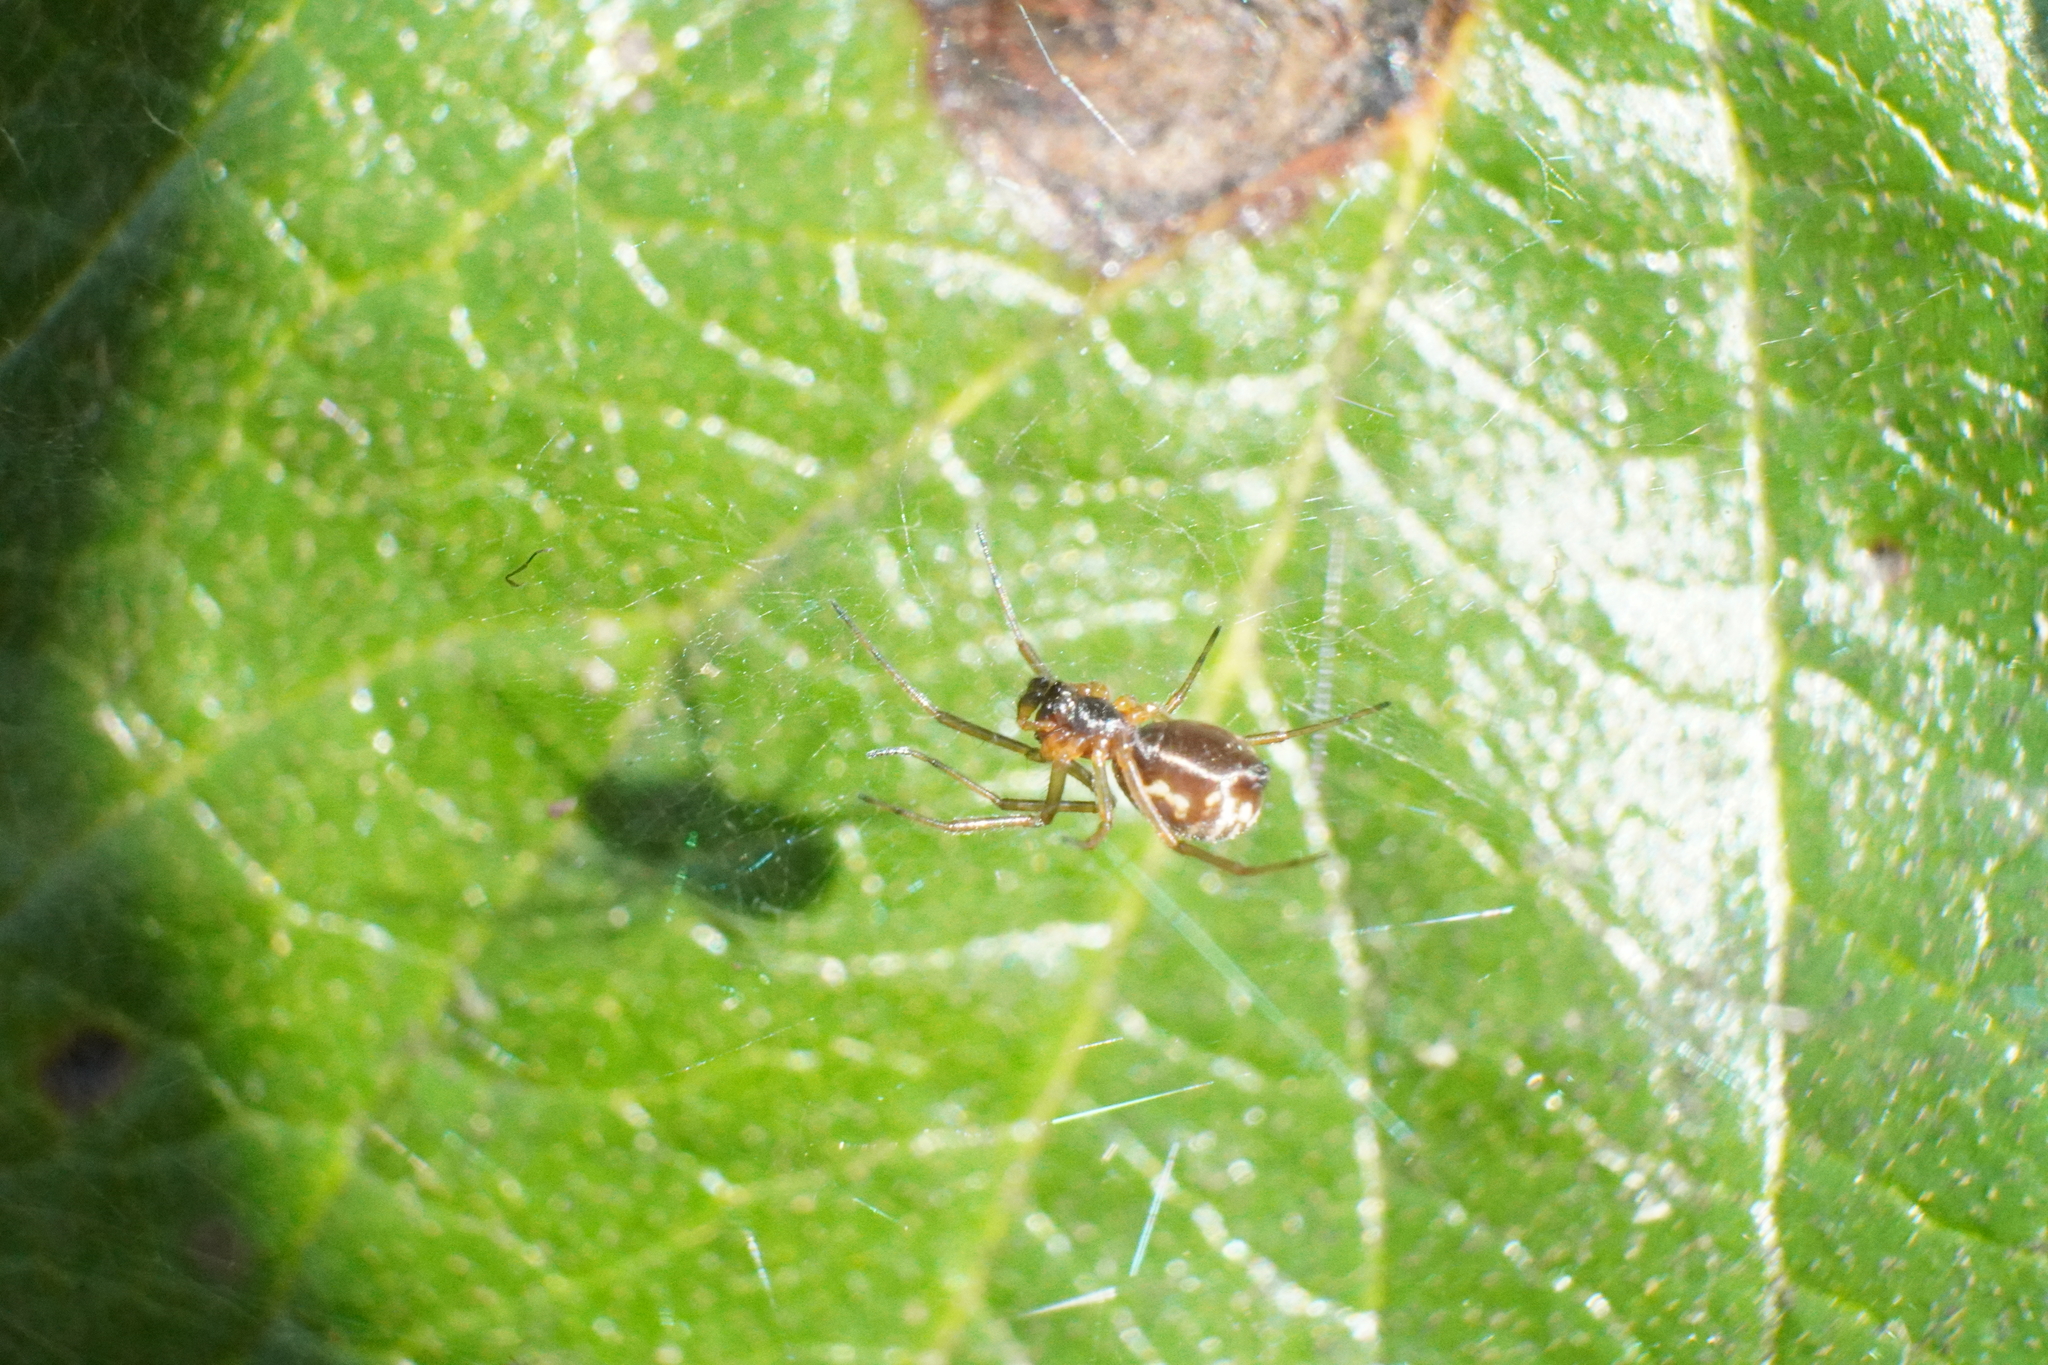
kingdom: Animalia
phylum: Arthropoda
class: Arachnida
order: Araneae
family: Linyphiidae
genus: Frontinella
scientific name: Frontinella pyramitela
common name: Bowl-and-doily spider
